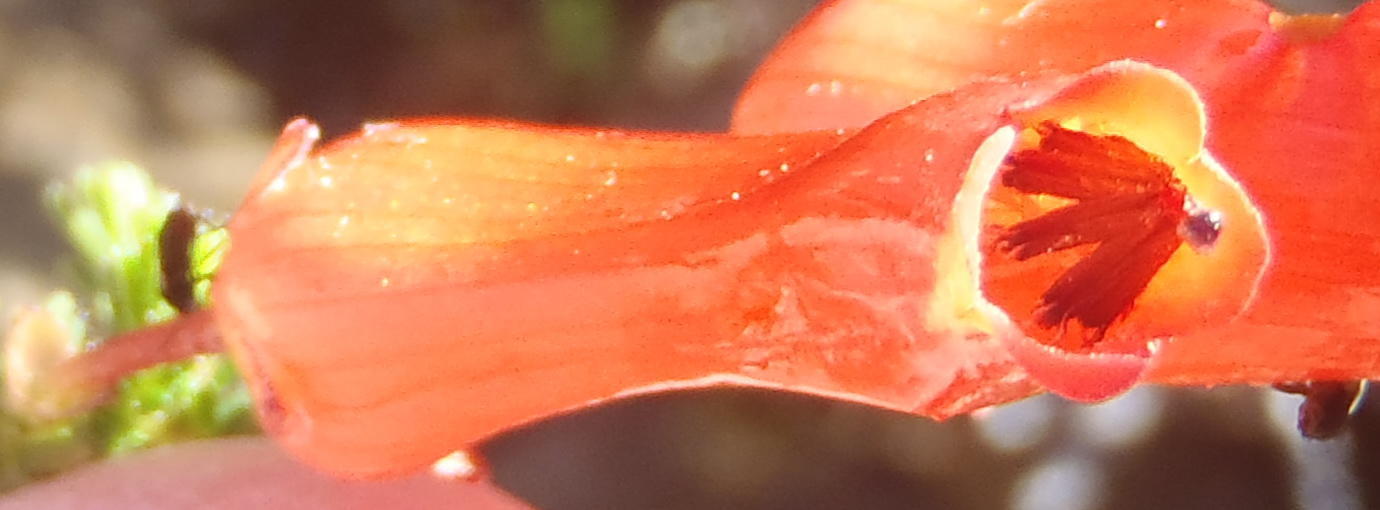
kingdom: Plantae
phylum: Tracheophyta
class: Magnoliopsida
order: Ericales
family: Ericaceae
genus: Erica
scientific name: Erica inordinata
